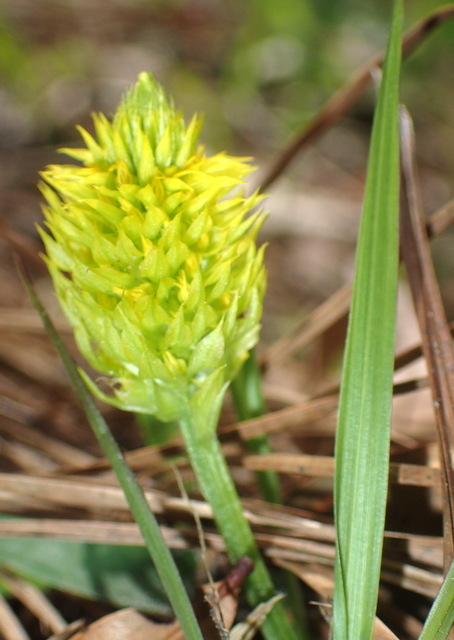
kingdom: Plantae
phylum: Tracheophyta
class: Magnoliopsida
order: Fabales
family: Polygalaceae
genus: Polygala
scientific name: Polygala nana
